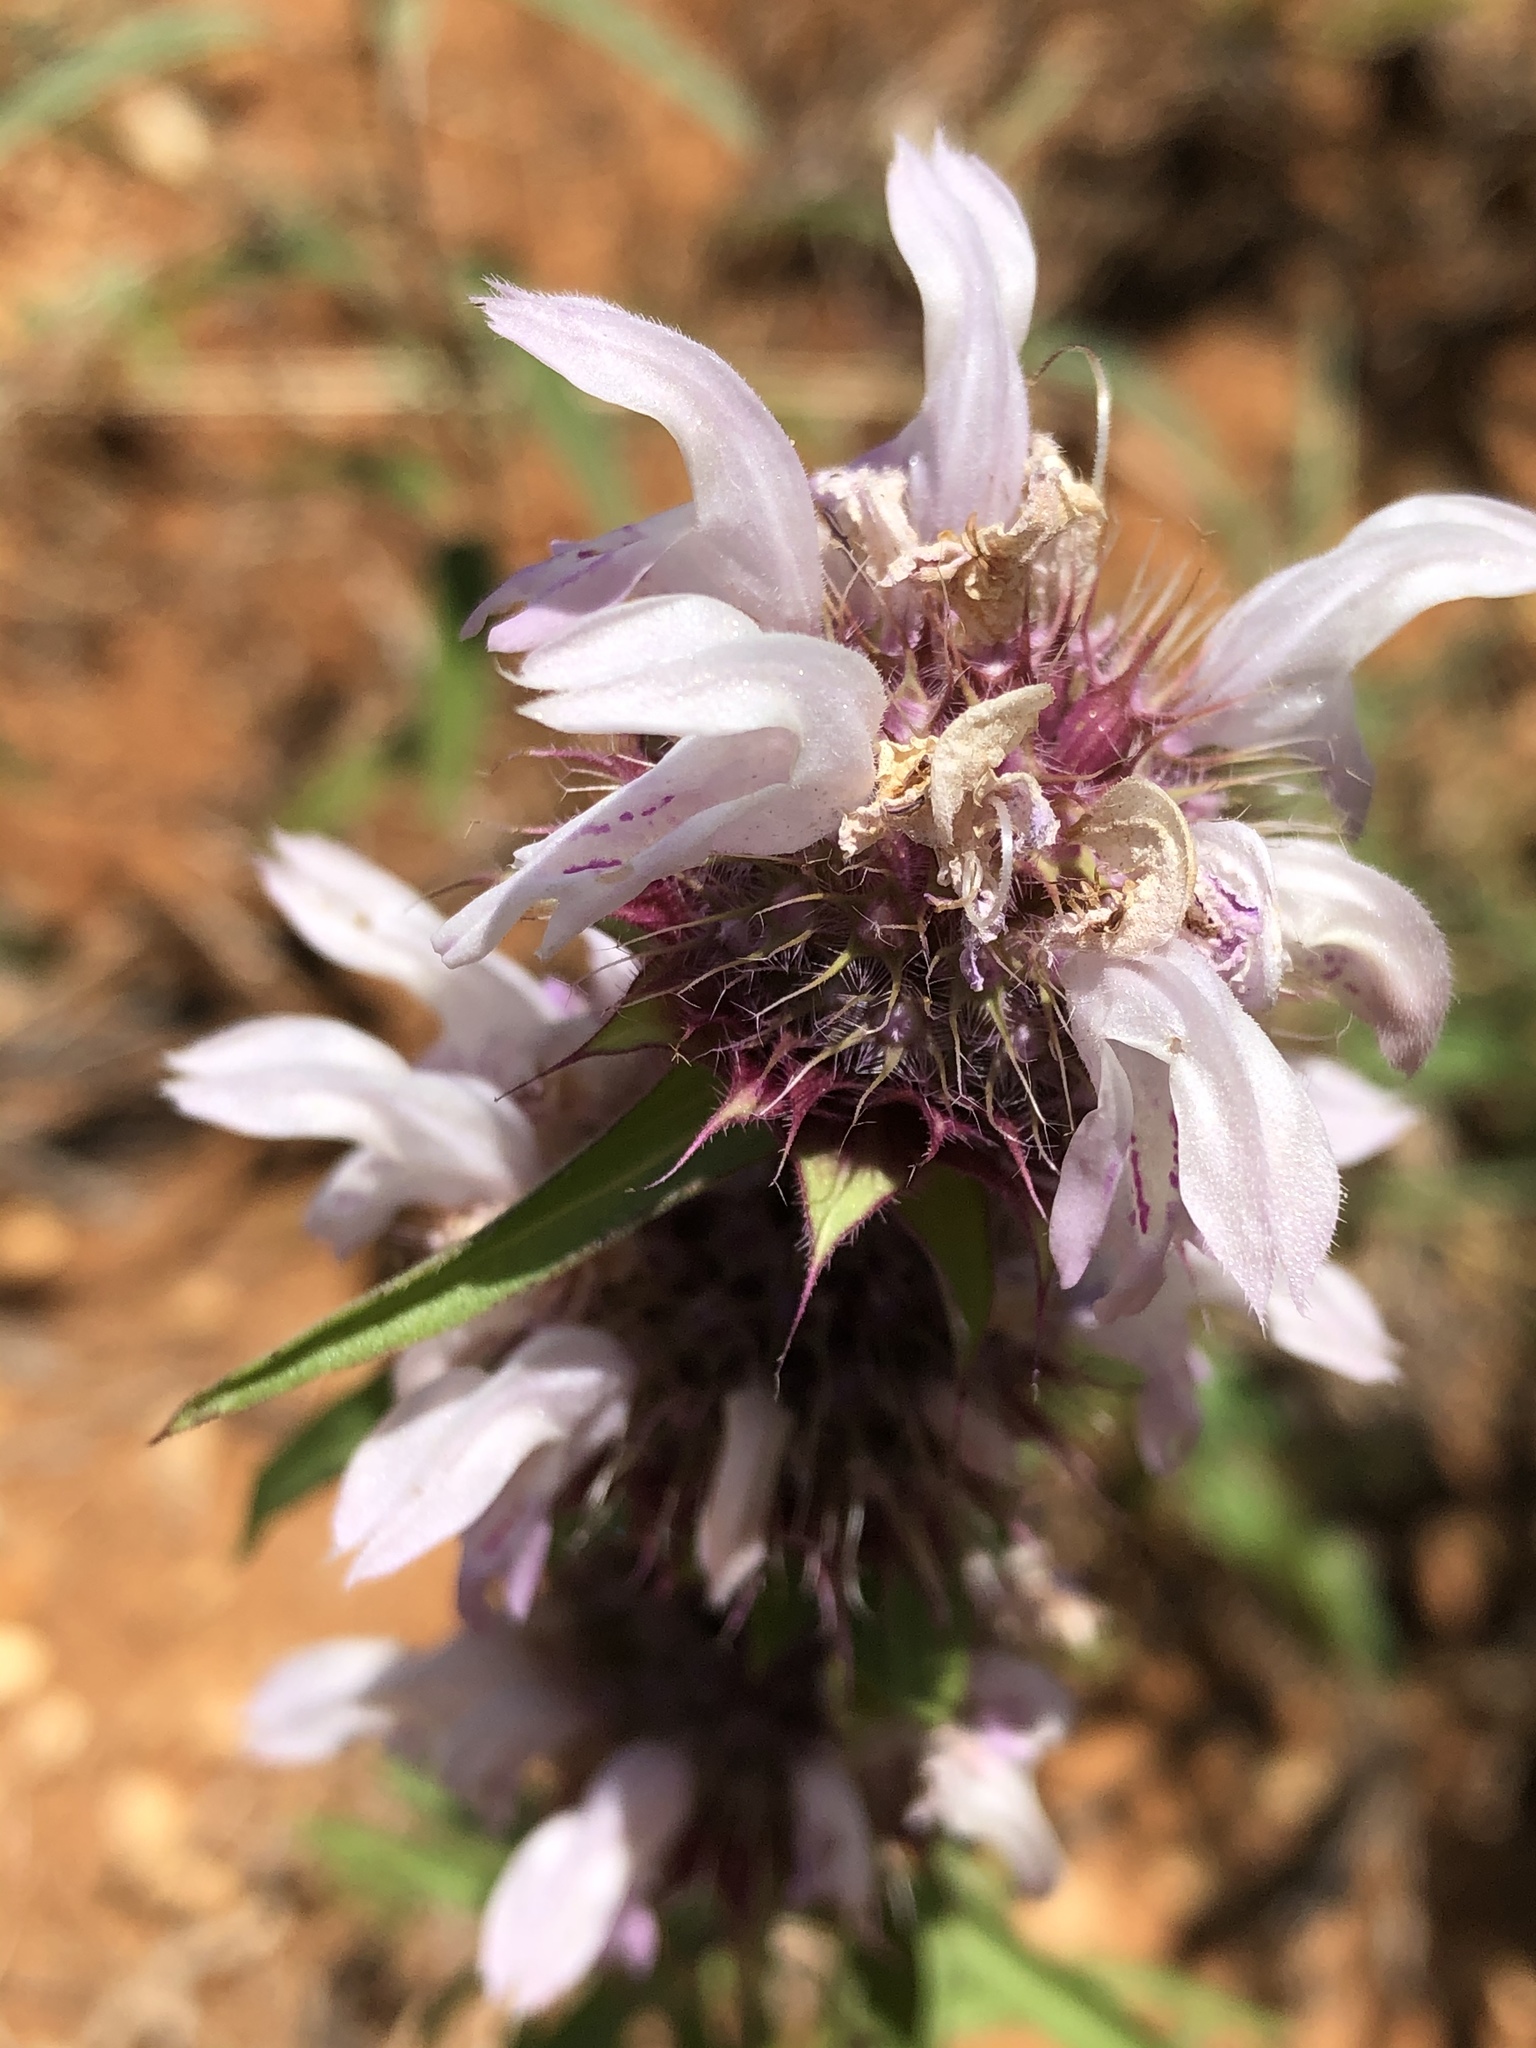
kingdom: Plantae
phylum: Tracheophyta
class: Magnoliopsida
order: Lamiales
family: Lamiaceae
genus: Monarda
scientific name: Monarda clinopodioides
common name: Basil beebalm
